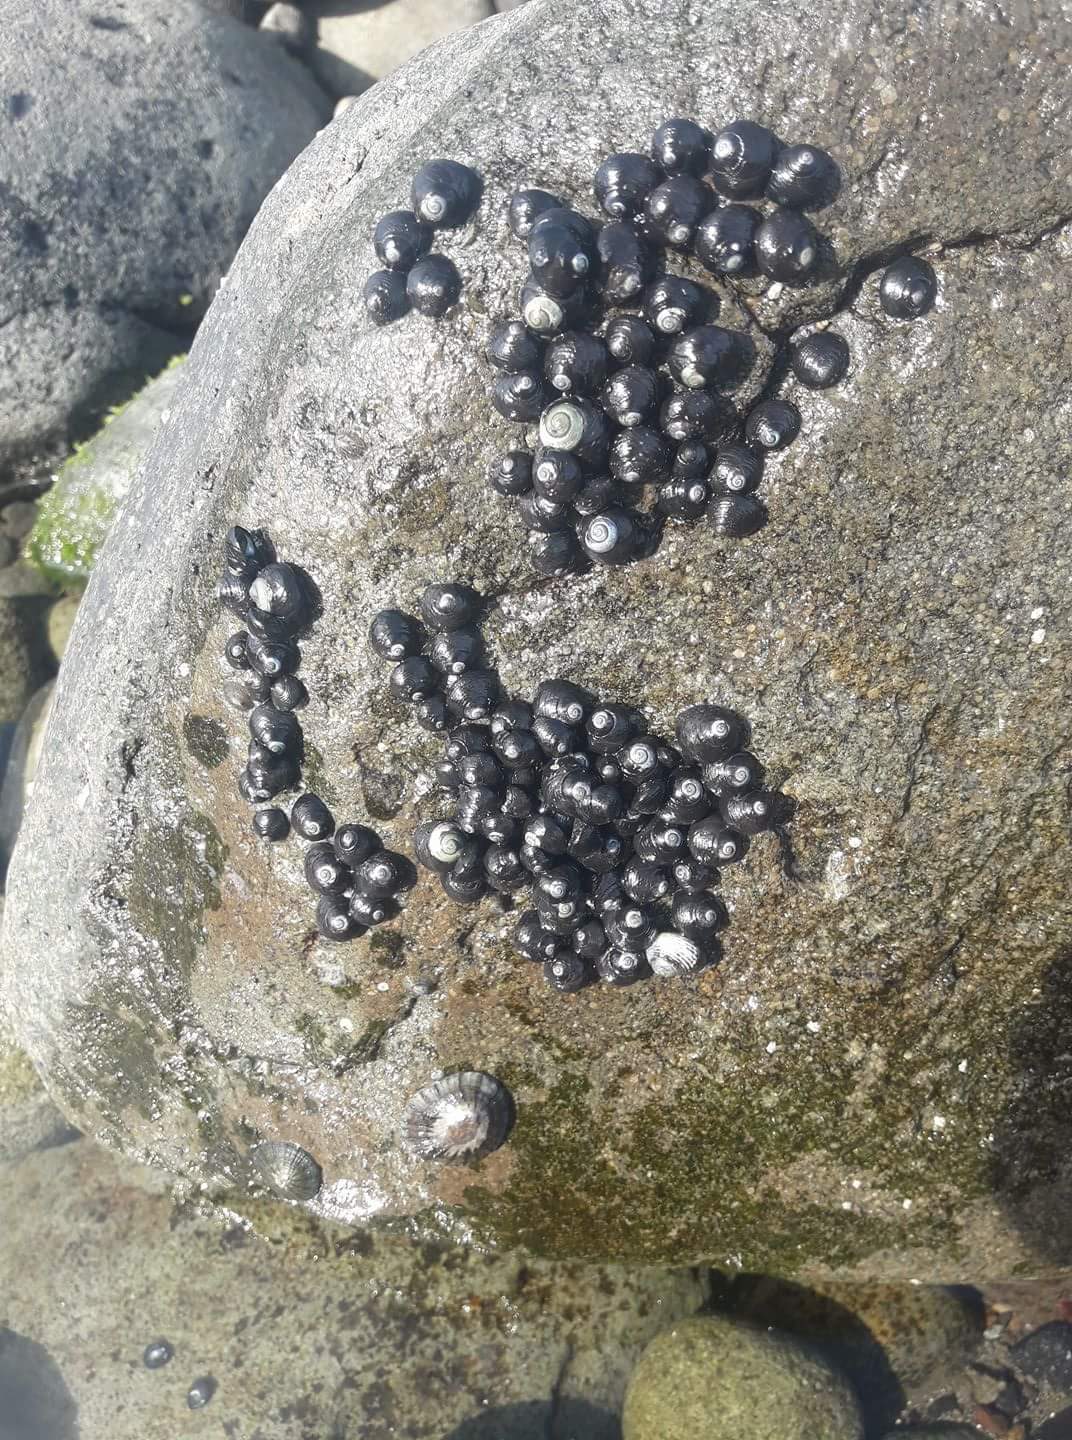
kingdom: Animalia
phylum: Mollusca
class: Gastropoda
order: Trochida
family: Trochidae
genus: Diloma
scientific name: Diloma zelandicum
